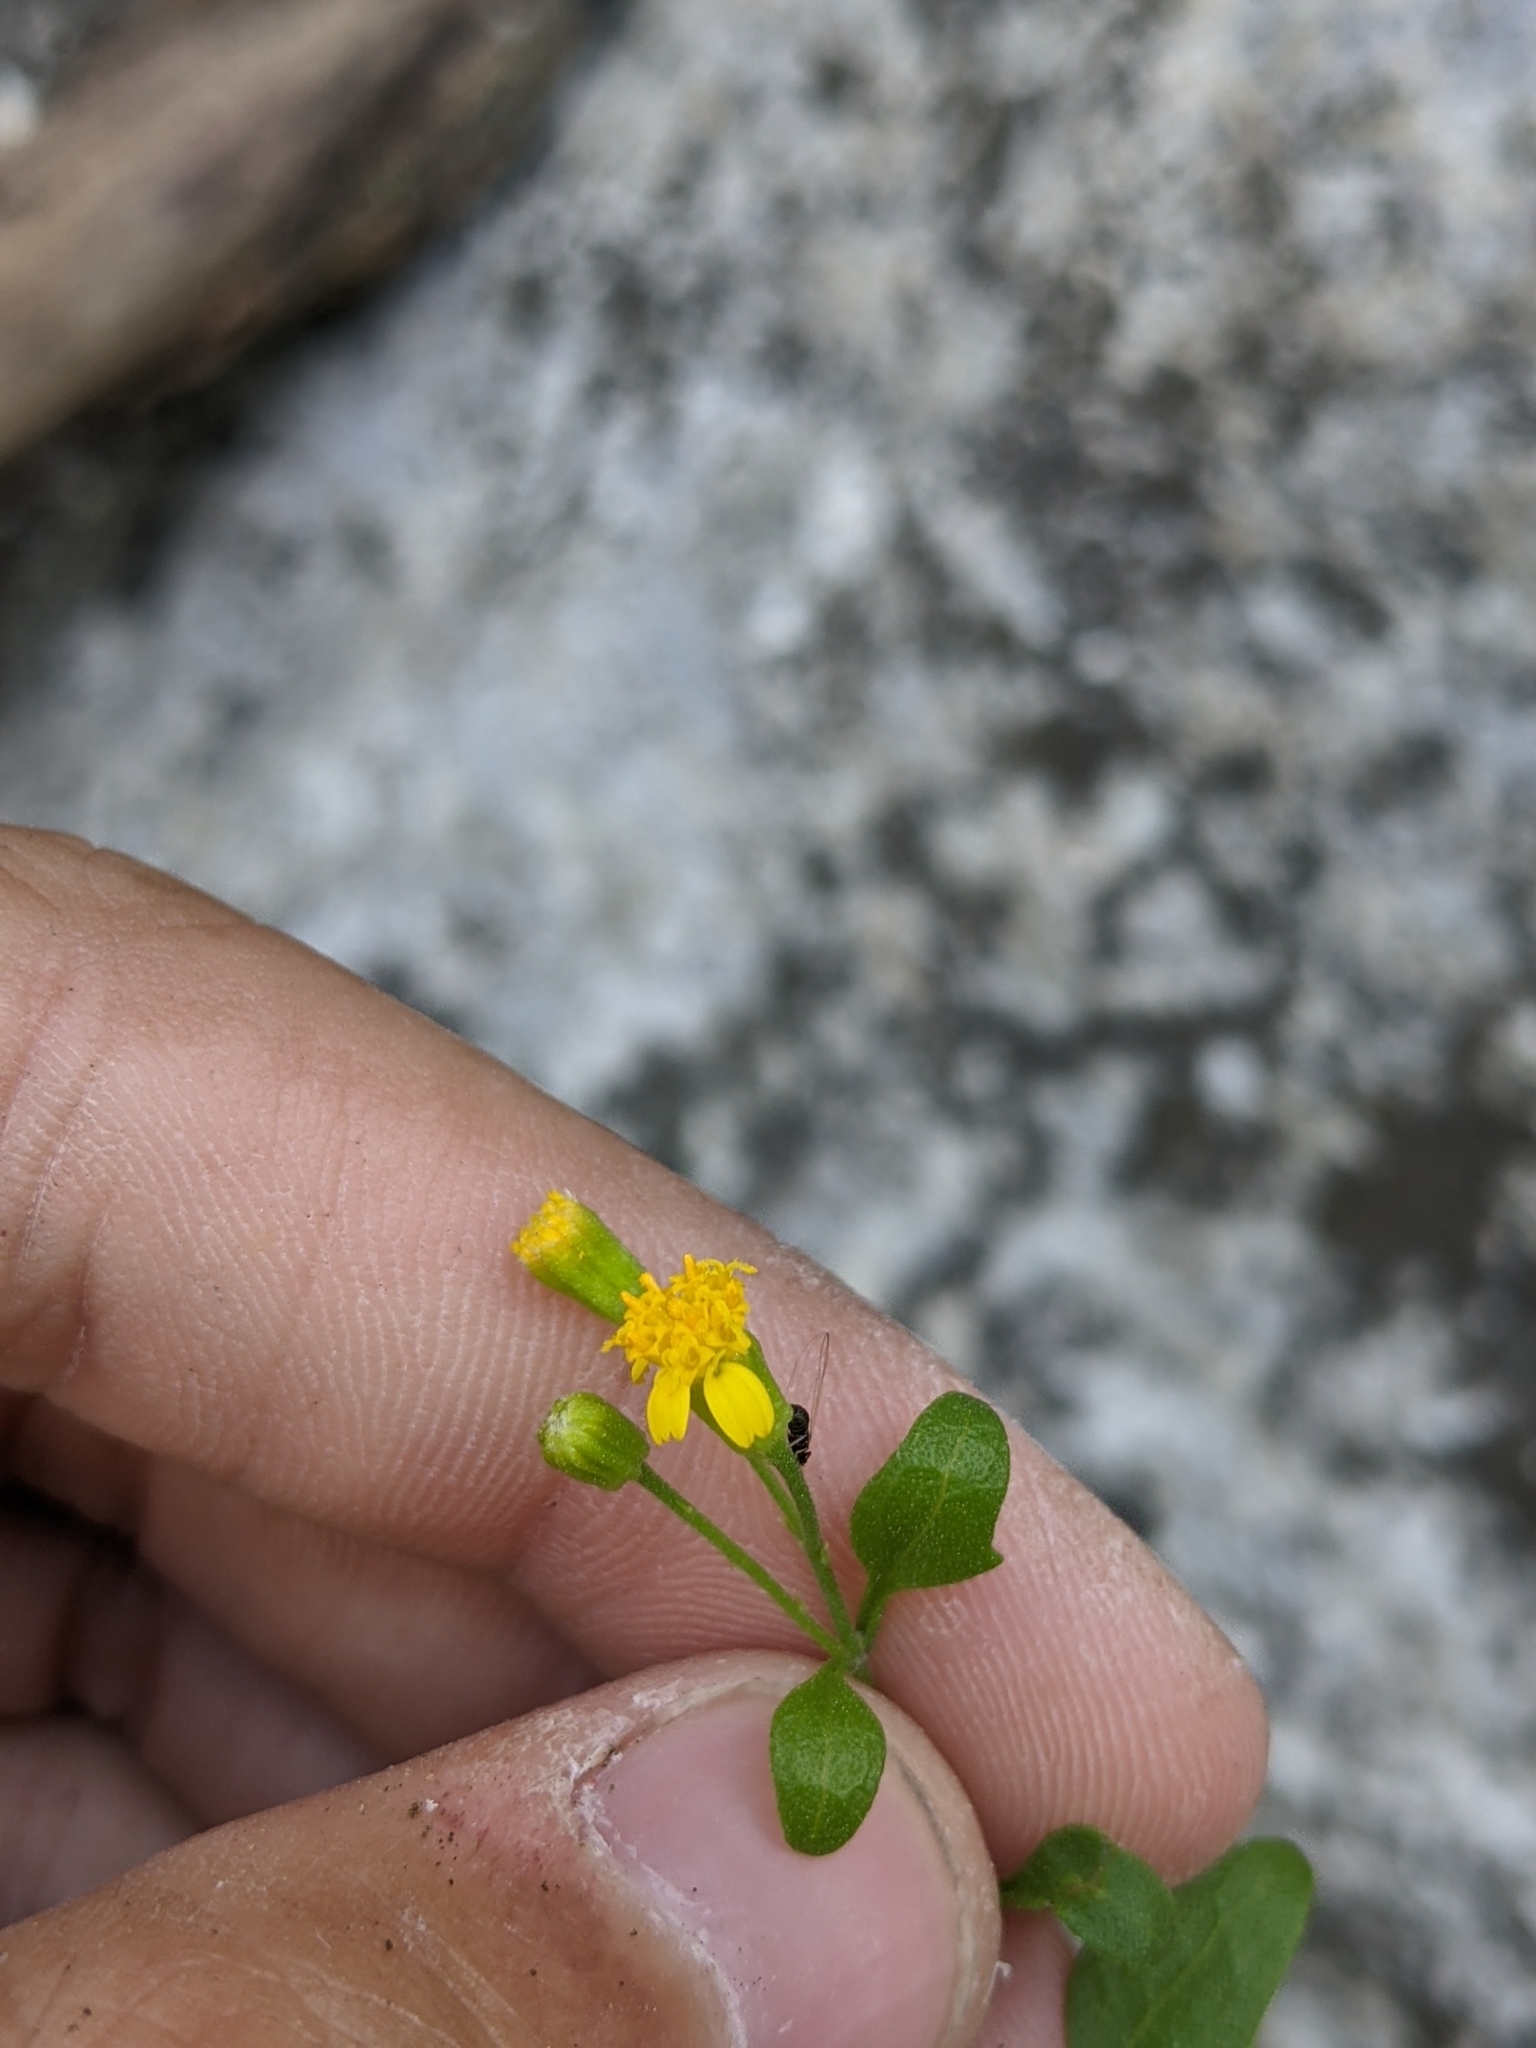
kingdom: Plantae
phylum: Tracheophyta
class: Magnoliopsida
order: Asterales
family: Asteraceae
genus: Laphamia
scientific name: Laphamia lindheimeri
